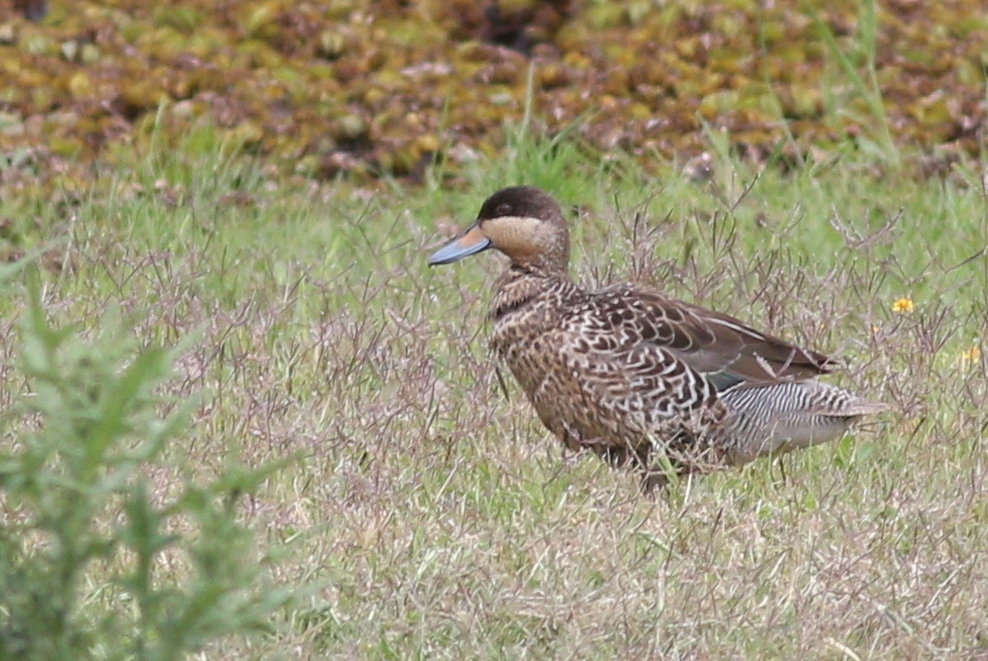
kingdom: Animalia
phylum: Chordata
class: Aves
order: Anseriformes
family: Anatidae
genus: Spatula
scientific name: Spatula versicolor
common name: Silver teal
